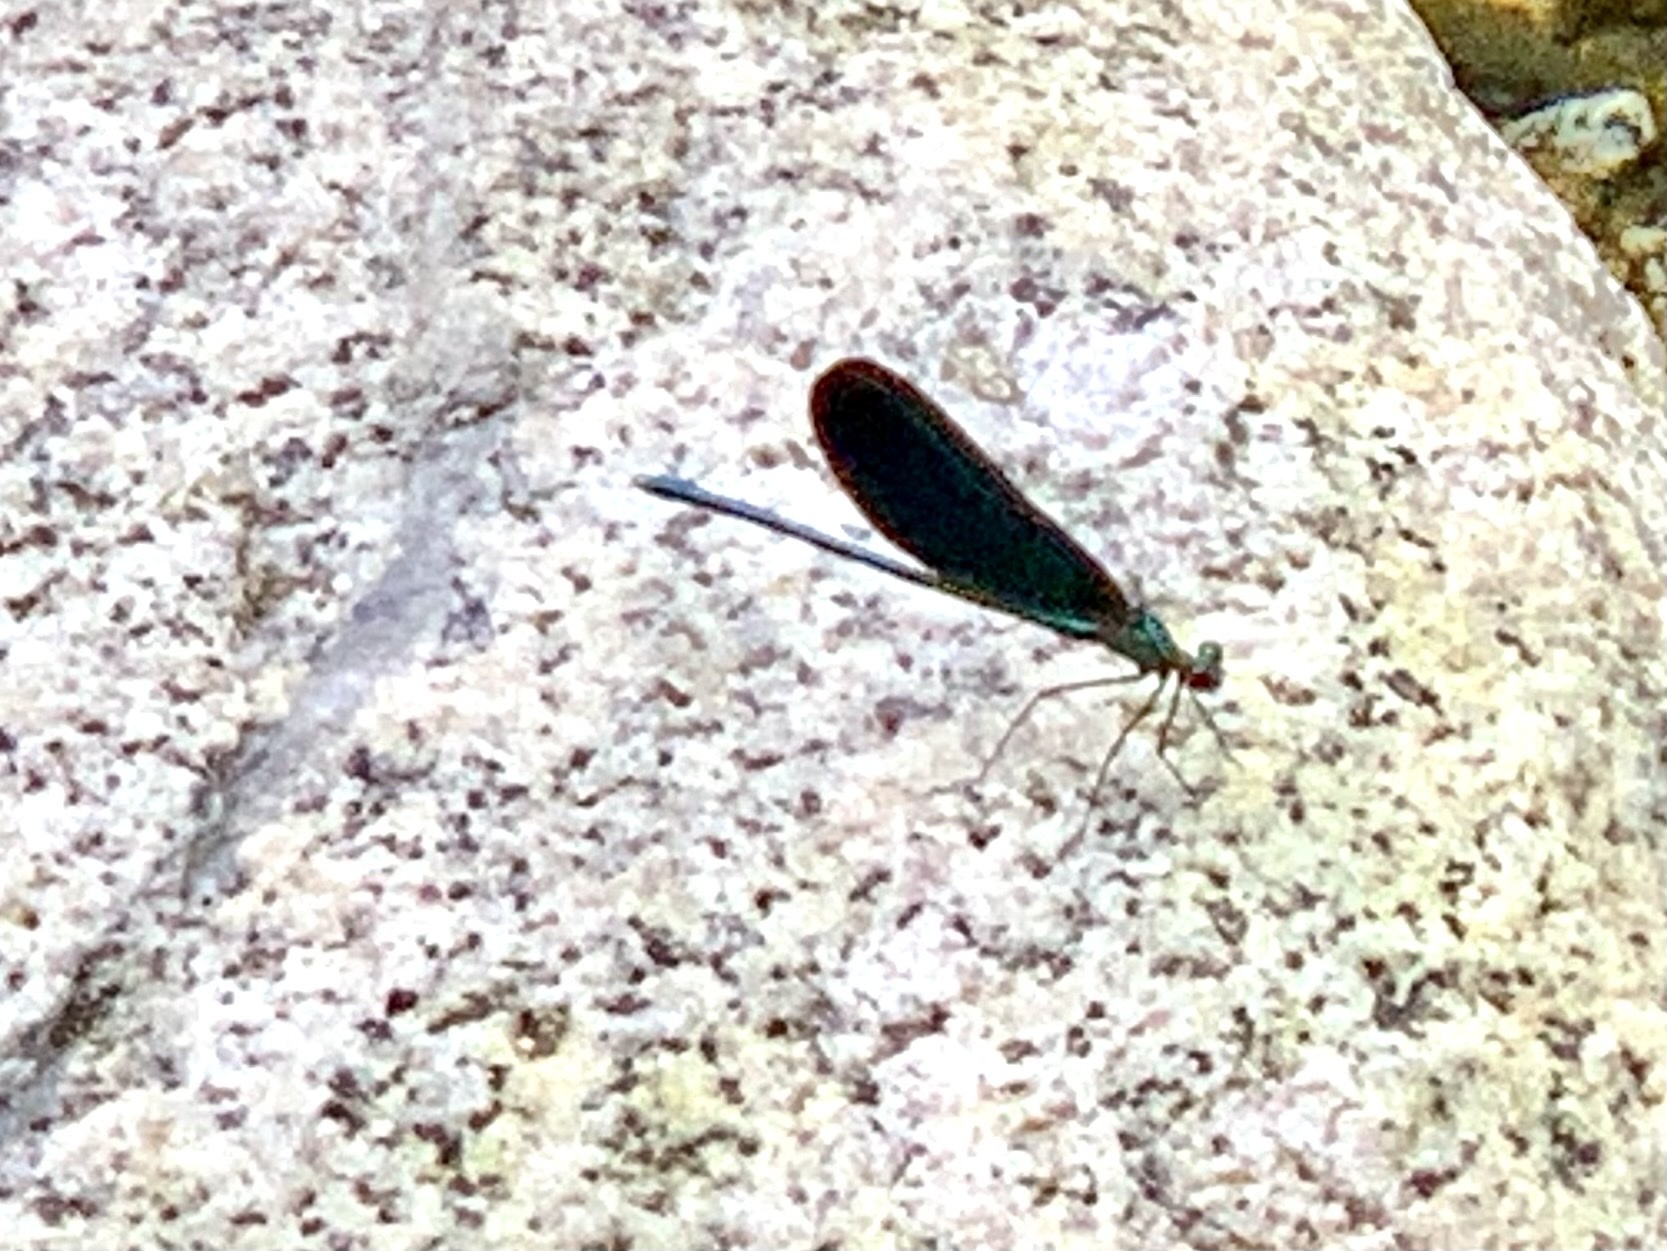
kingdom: Animalia
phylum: Arthropoda
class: Insecta
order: Odonata
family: Calopterygidae
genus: Calopteryx
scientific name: Calopteryx virgo
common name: Beautiful demoiselle
